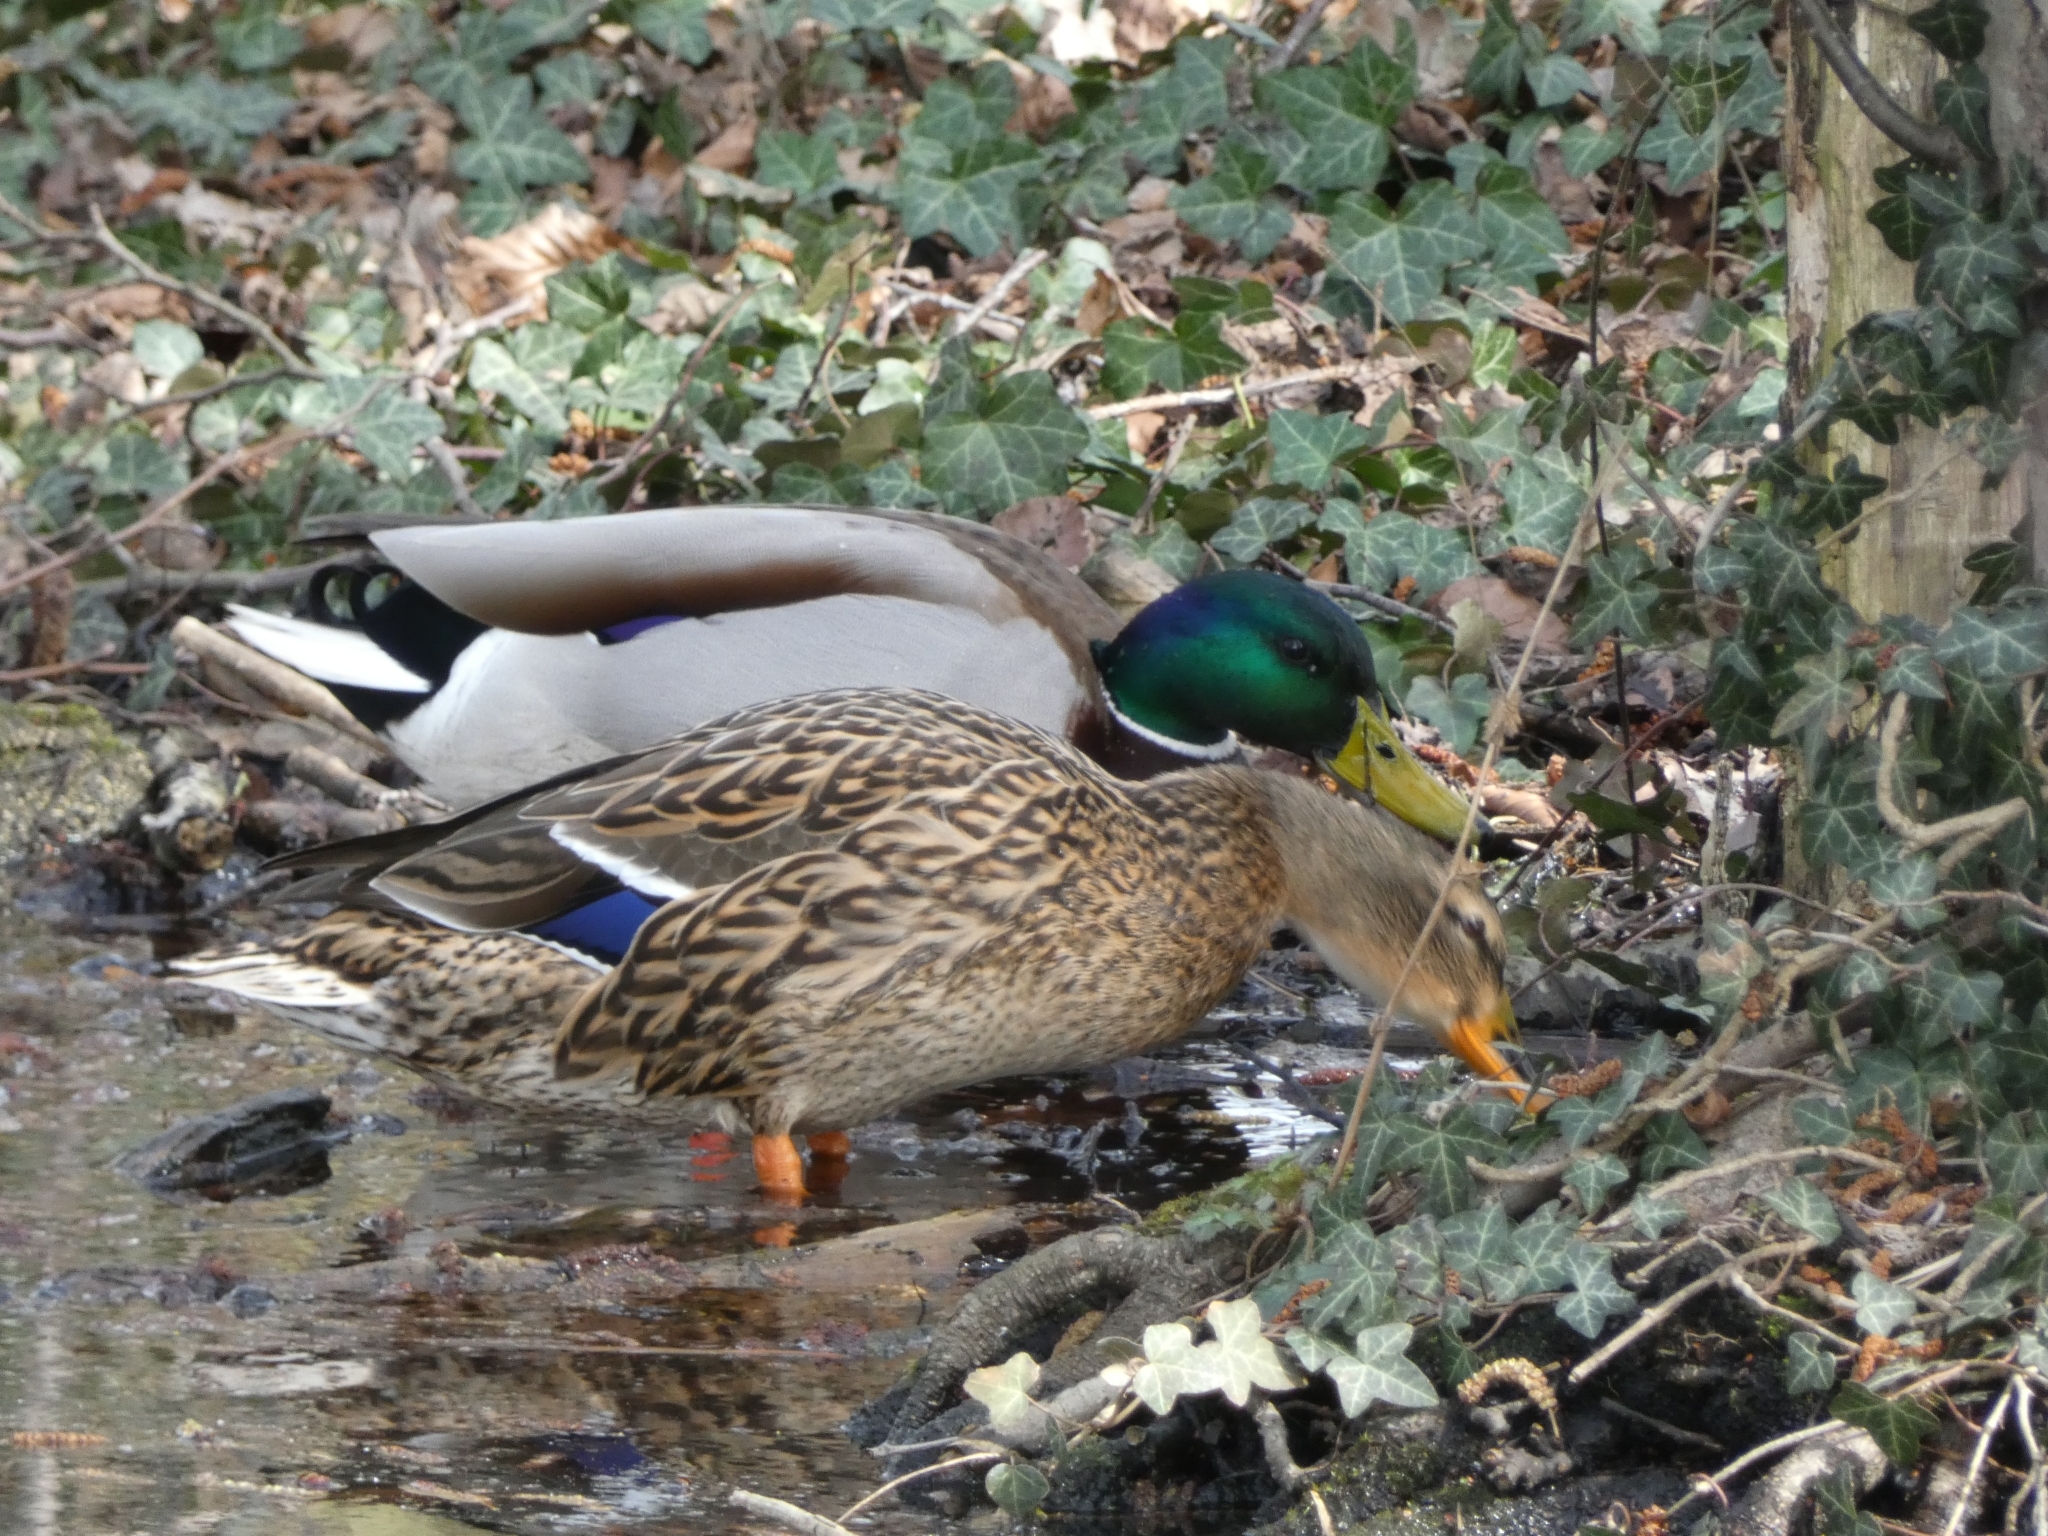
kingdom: Animalia
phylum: Chordata
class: Aves
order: Anseriformes
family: Anatidae
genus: Anas
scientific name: Anas platyrhynchos
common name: Mallard
